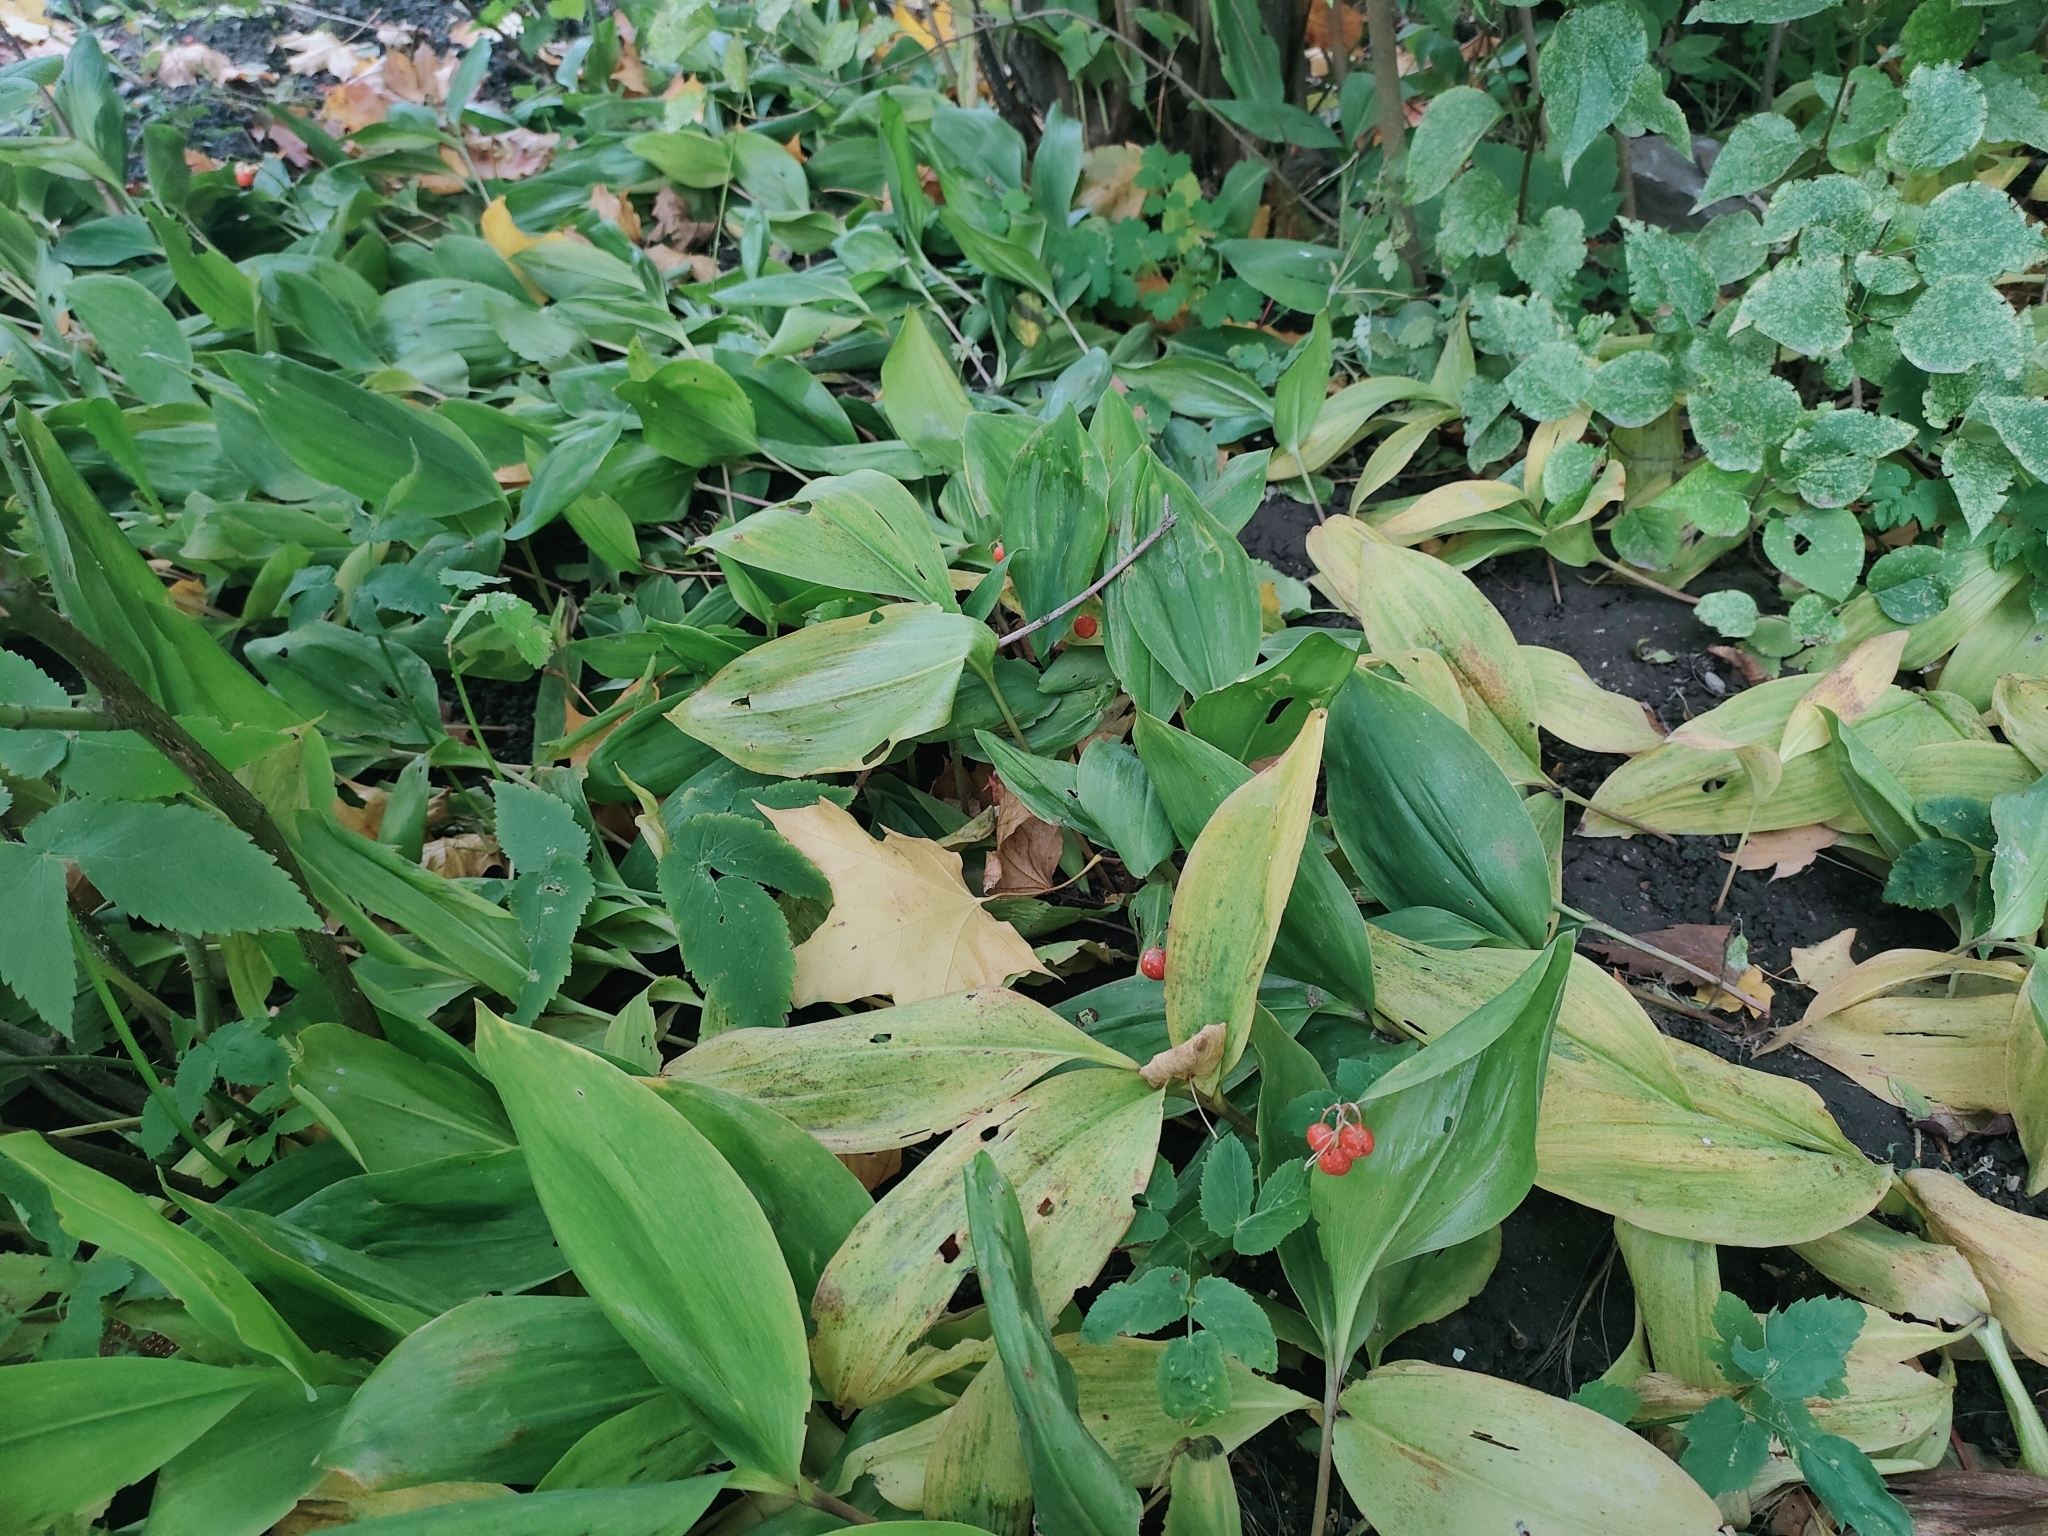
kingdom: Plantae
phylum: Tracheophyta
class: Liliopsida
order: Asparagales
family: Asparagaceae
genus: Convallaria
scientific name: Convallaria majalis
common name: Lily-of-the-valley
